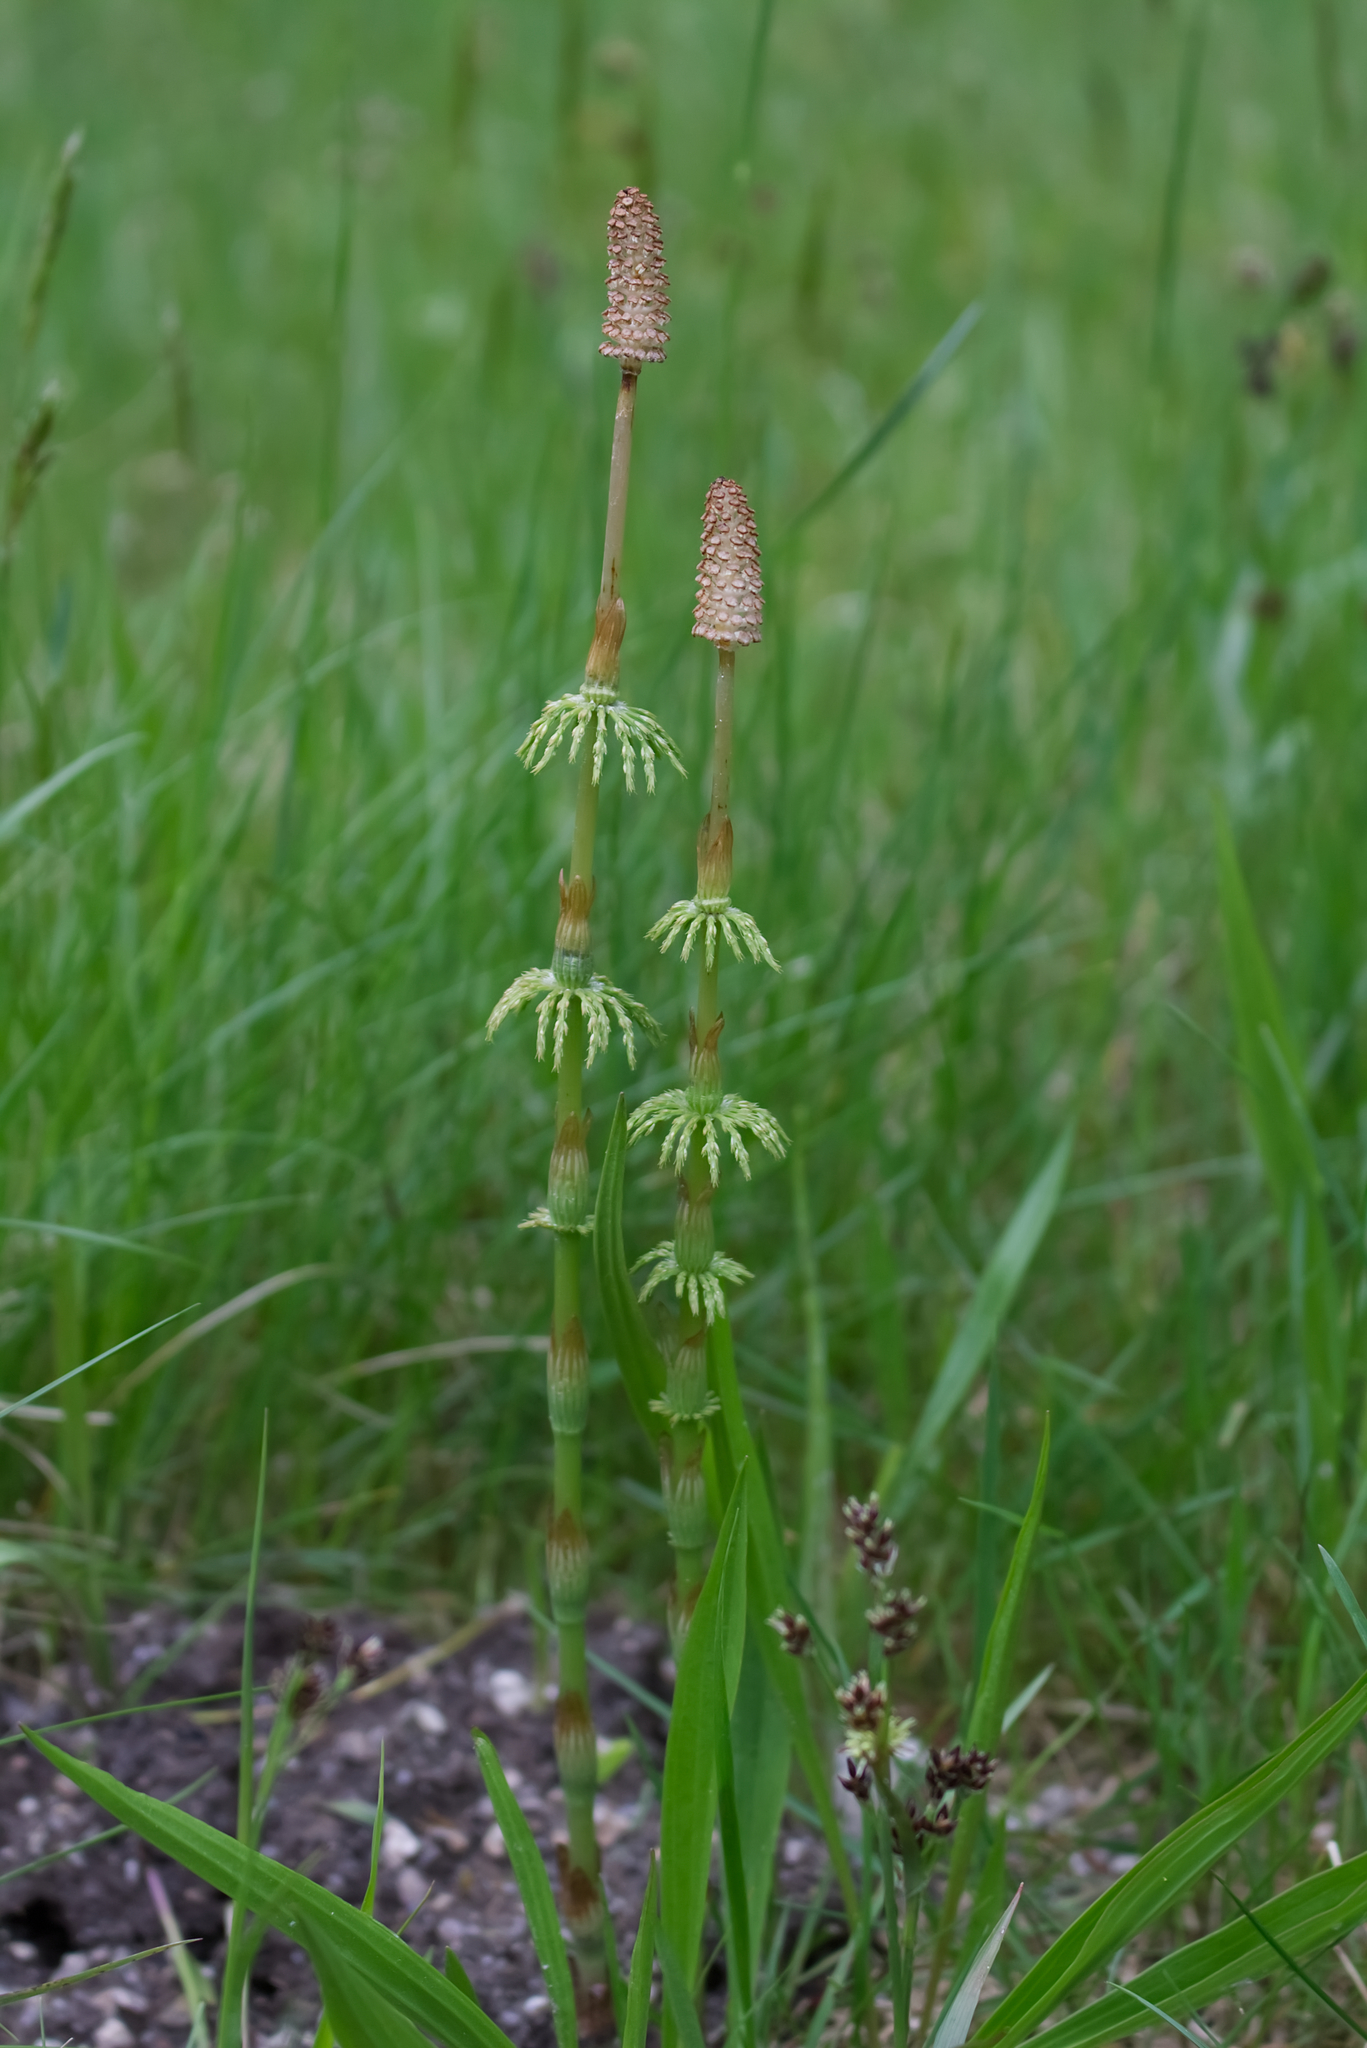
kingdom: Plantae
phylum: Tracheophyta
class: Polypodiopsida
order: Equisetales
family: Equisetaceae
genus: Equisetum
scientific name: Equisetum sylvaticum
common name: Wood horsetail
